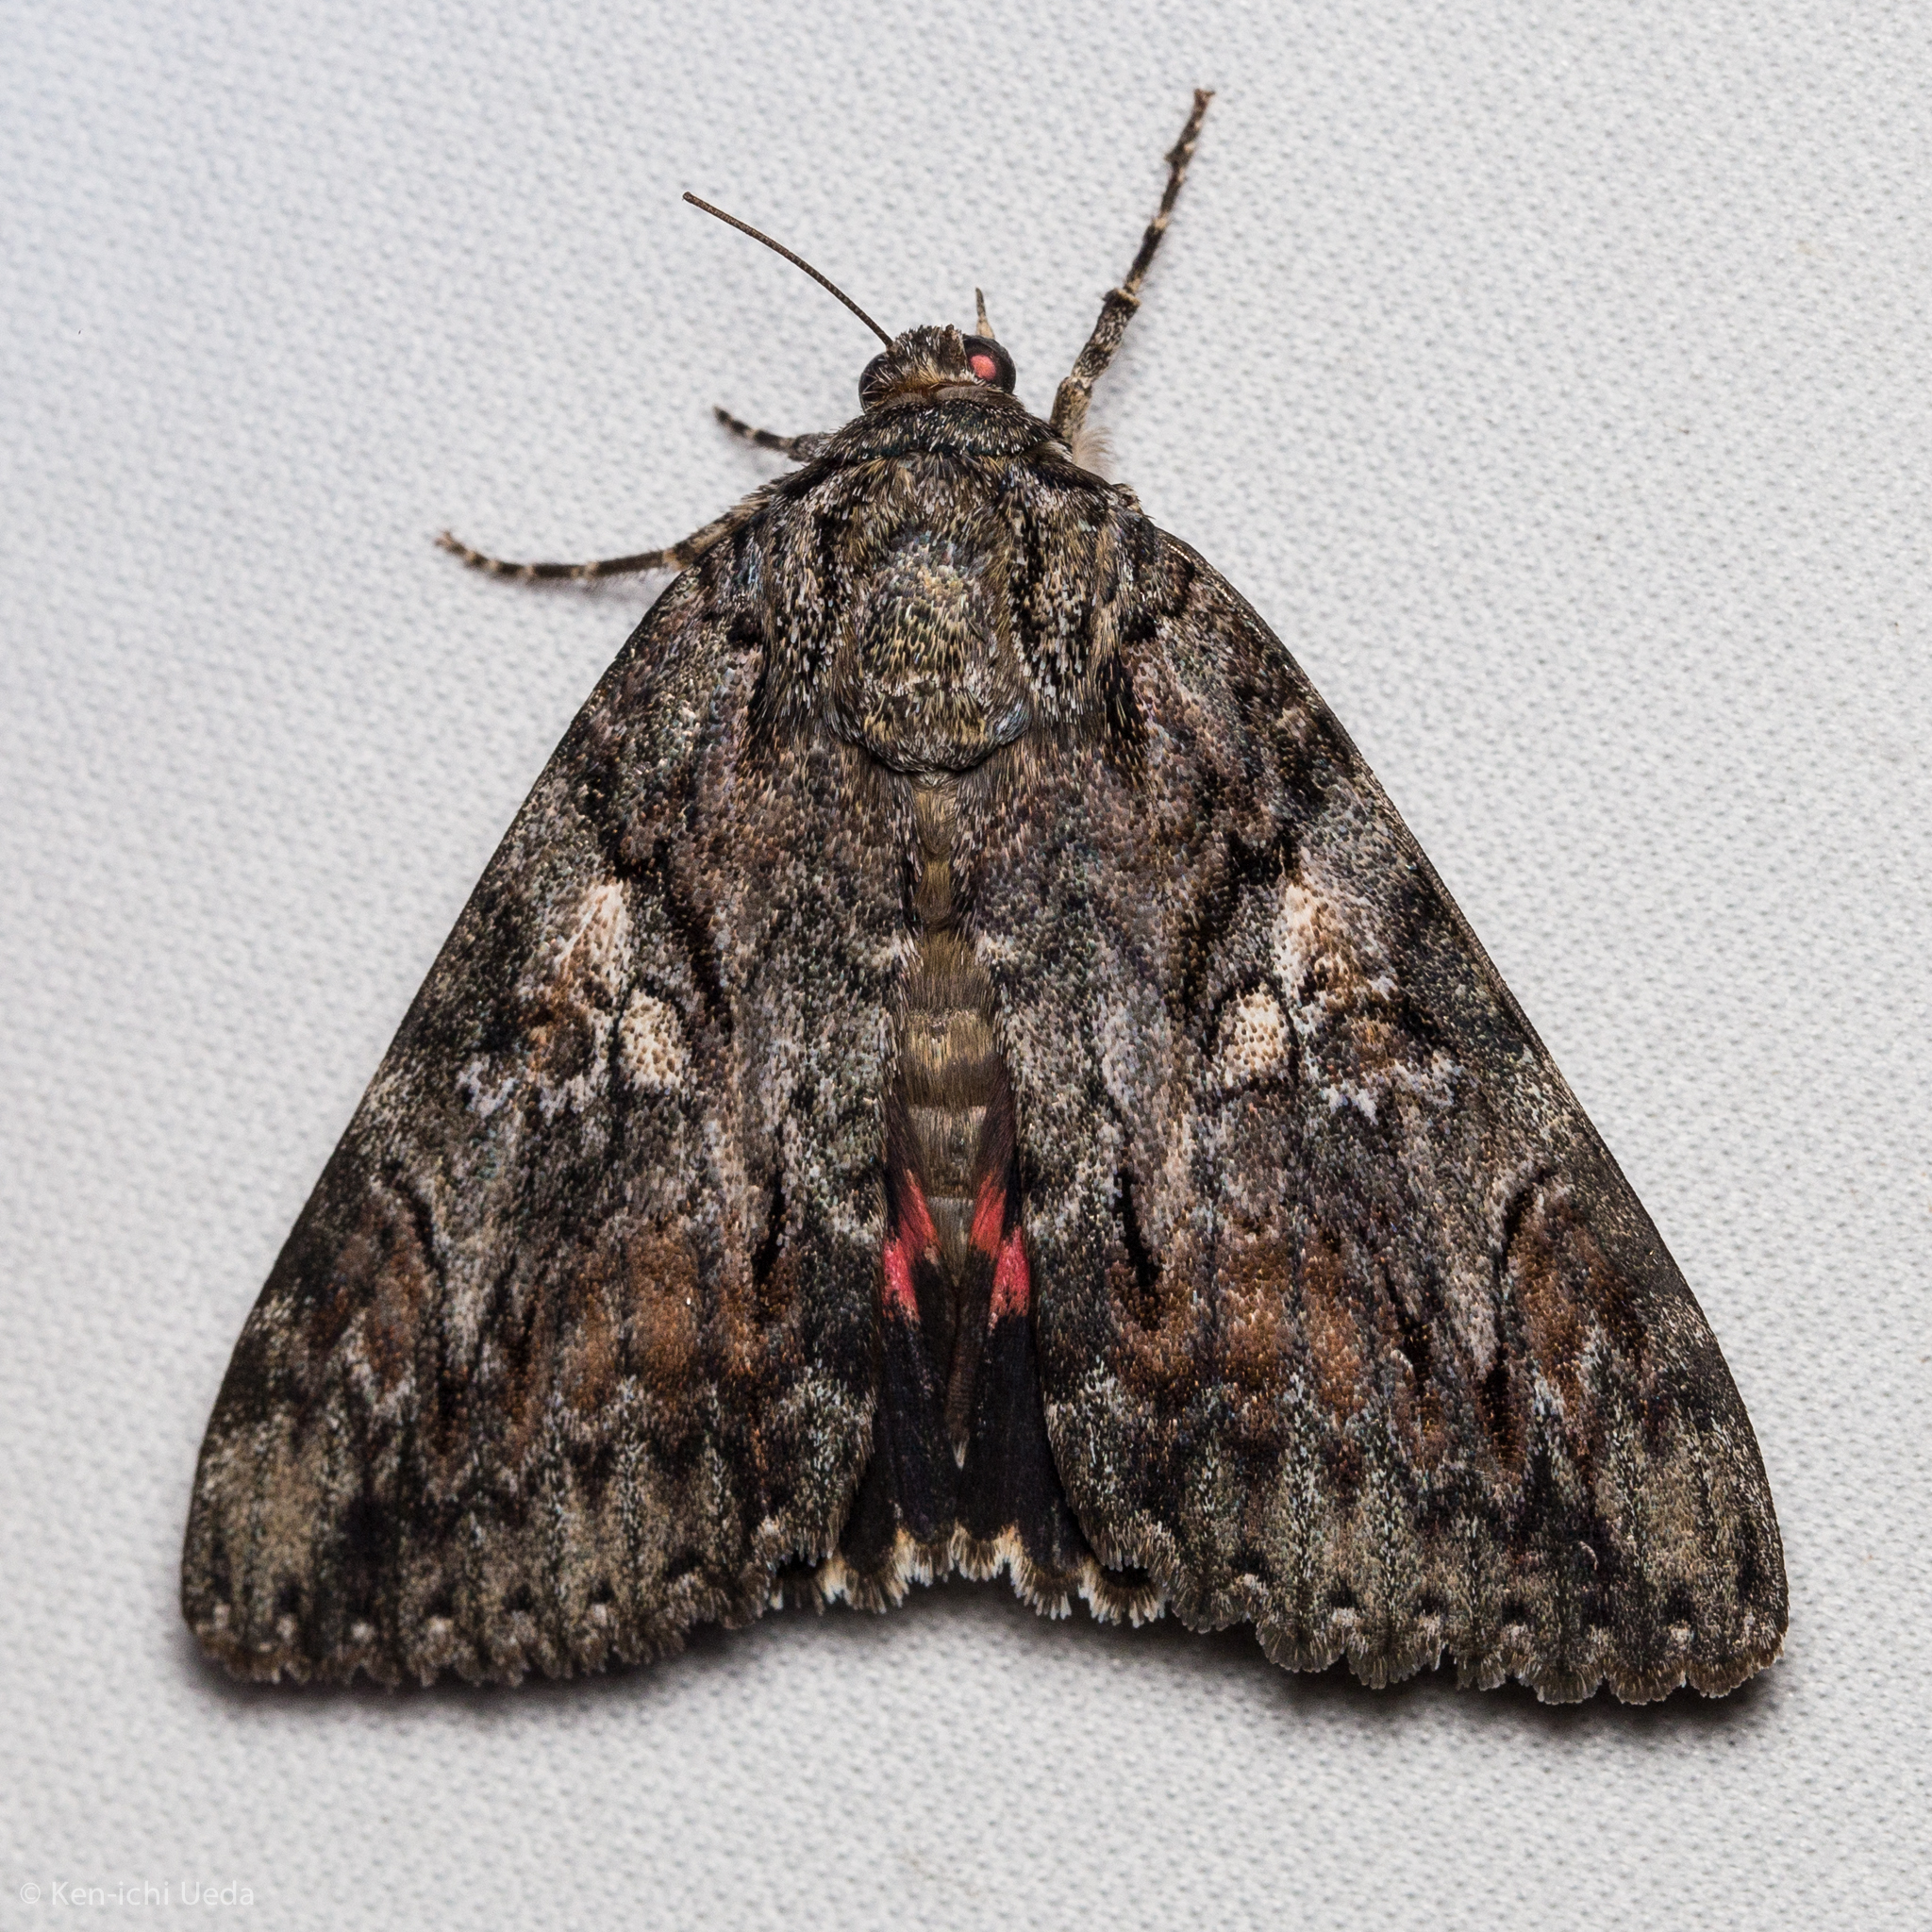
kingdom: Animalia
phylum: Arthropoda
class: Insecta
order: Lepidoptera
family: Erebidae
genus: Catocala
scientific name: Catocala aholibah
